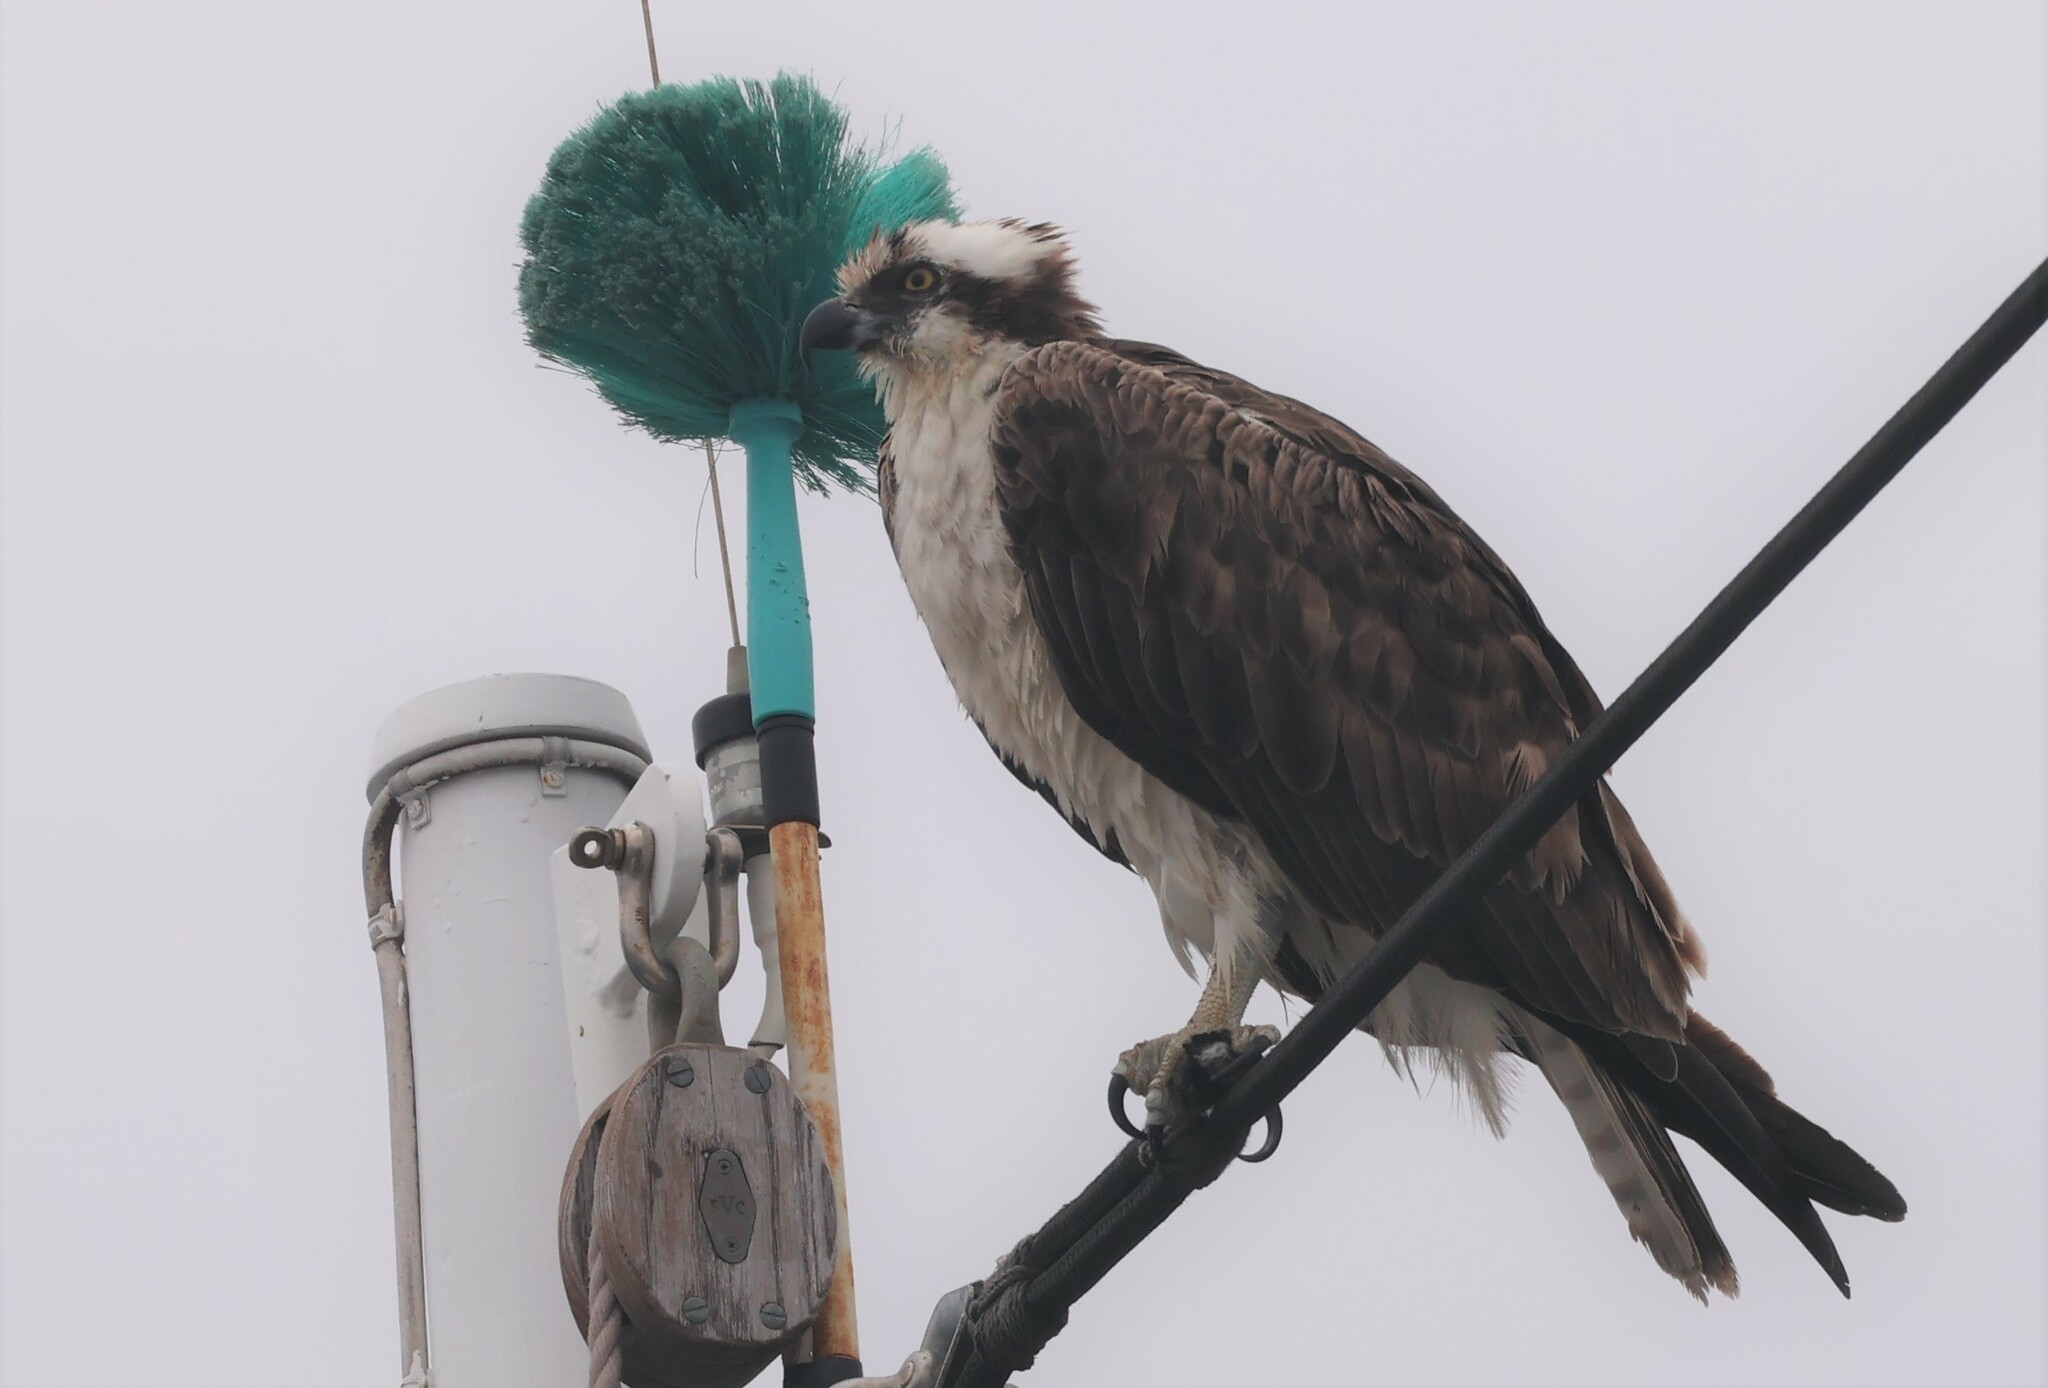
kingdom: Animalia
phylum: Chordata
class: Aves
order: Accipitriformes
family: Pandionidae
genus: Pandion
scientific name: Pandion haliaetus
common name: Osprey
